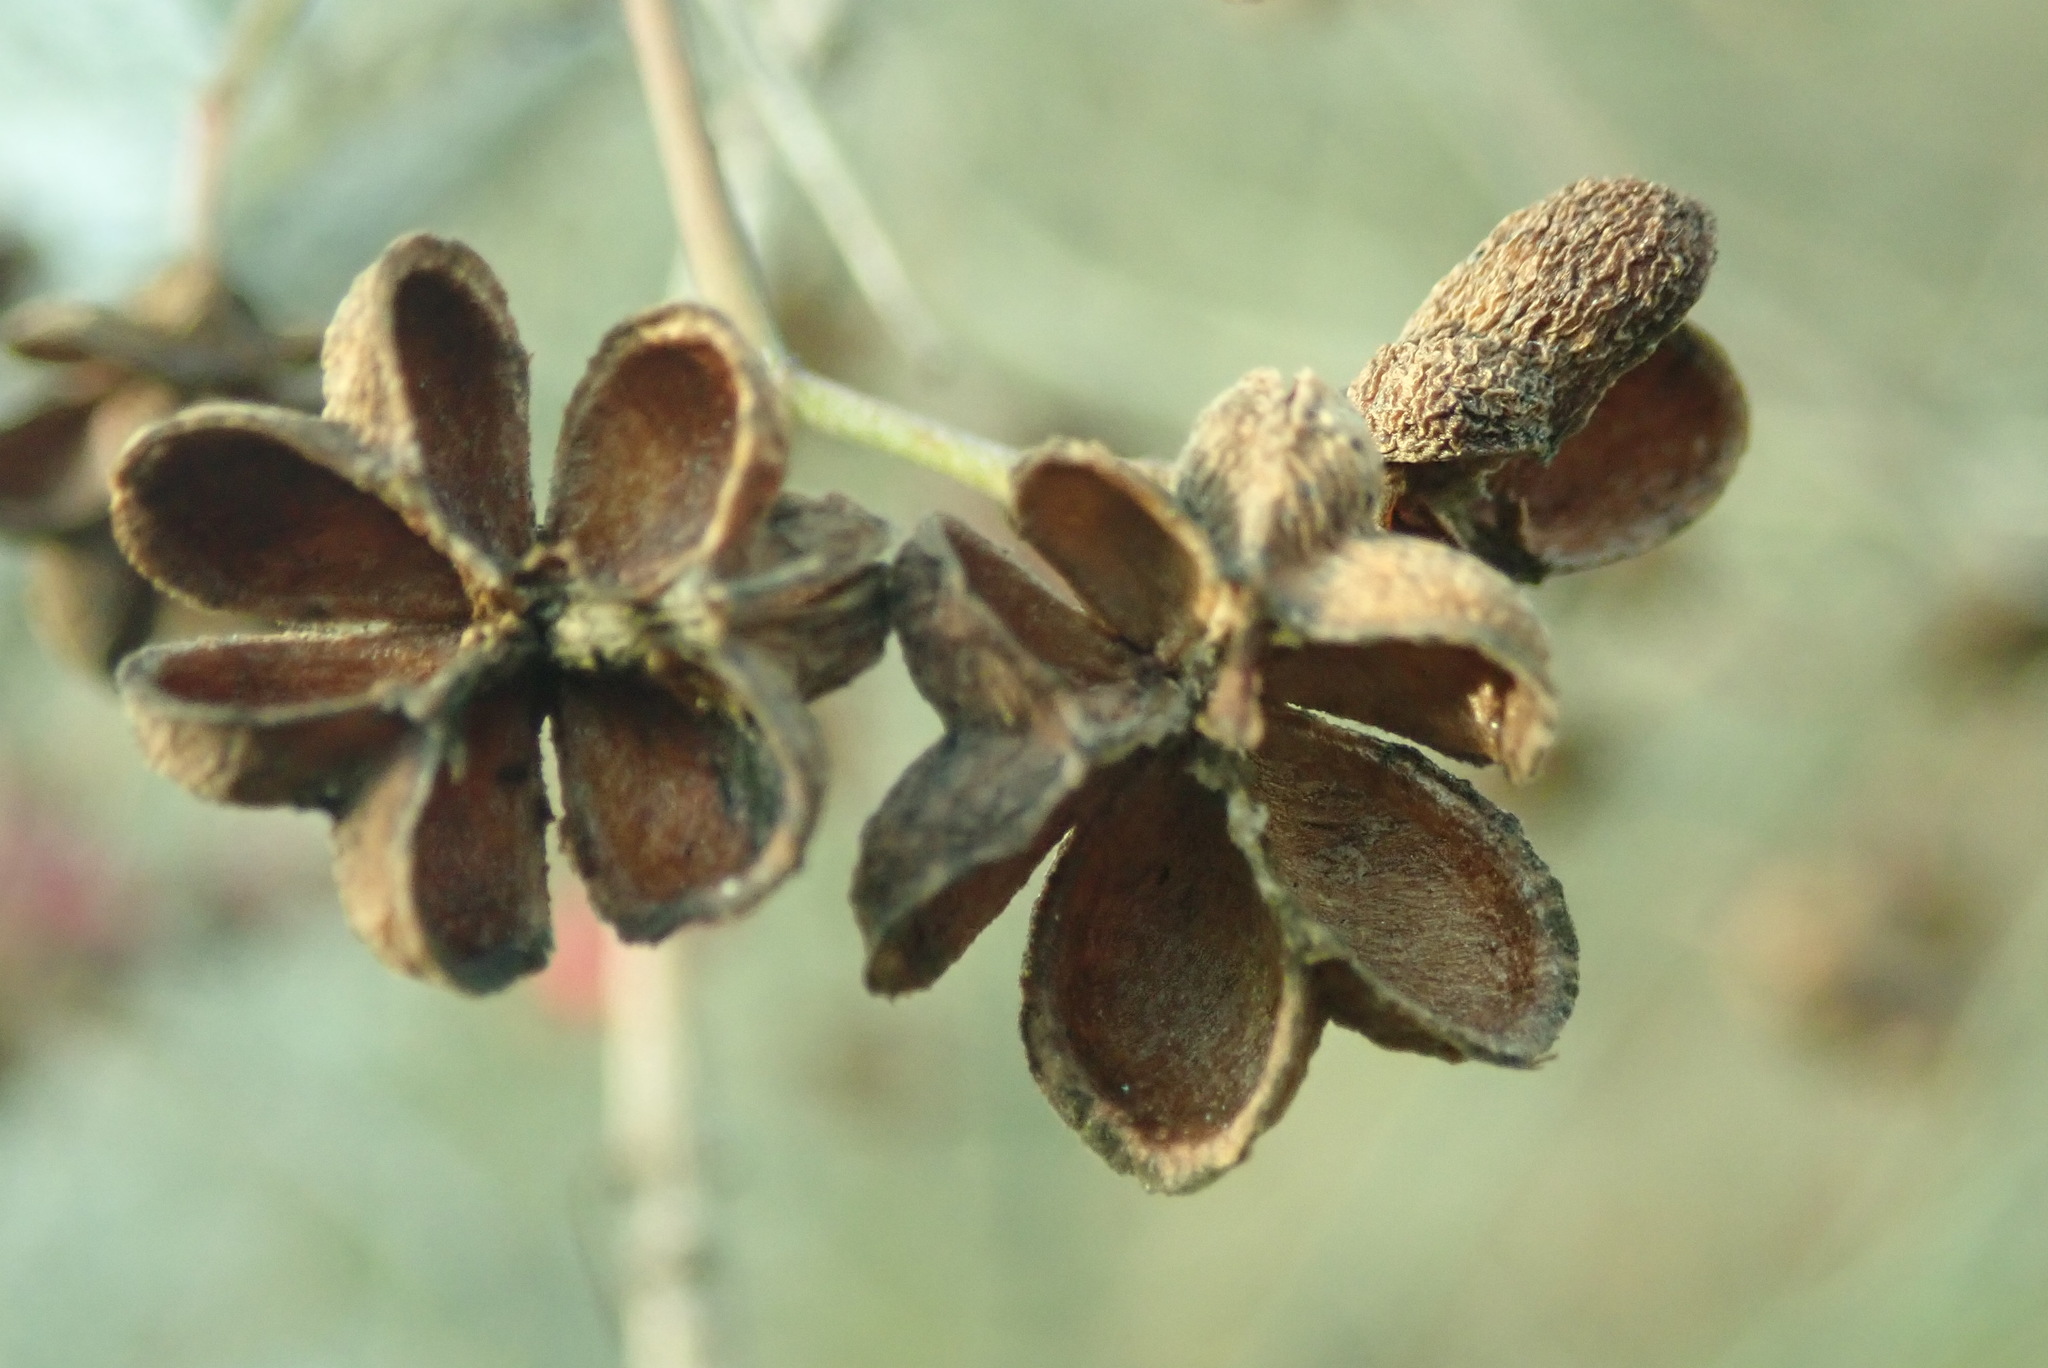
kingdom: Plantae
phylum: Tracheophyta
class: Magnoliopsida
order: Celastrales
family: Celastraceae
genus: Euonymus
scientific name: Euonymus europaeus
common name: Spindle
